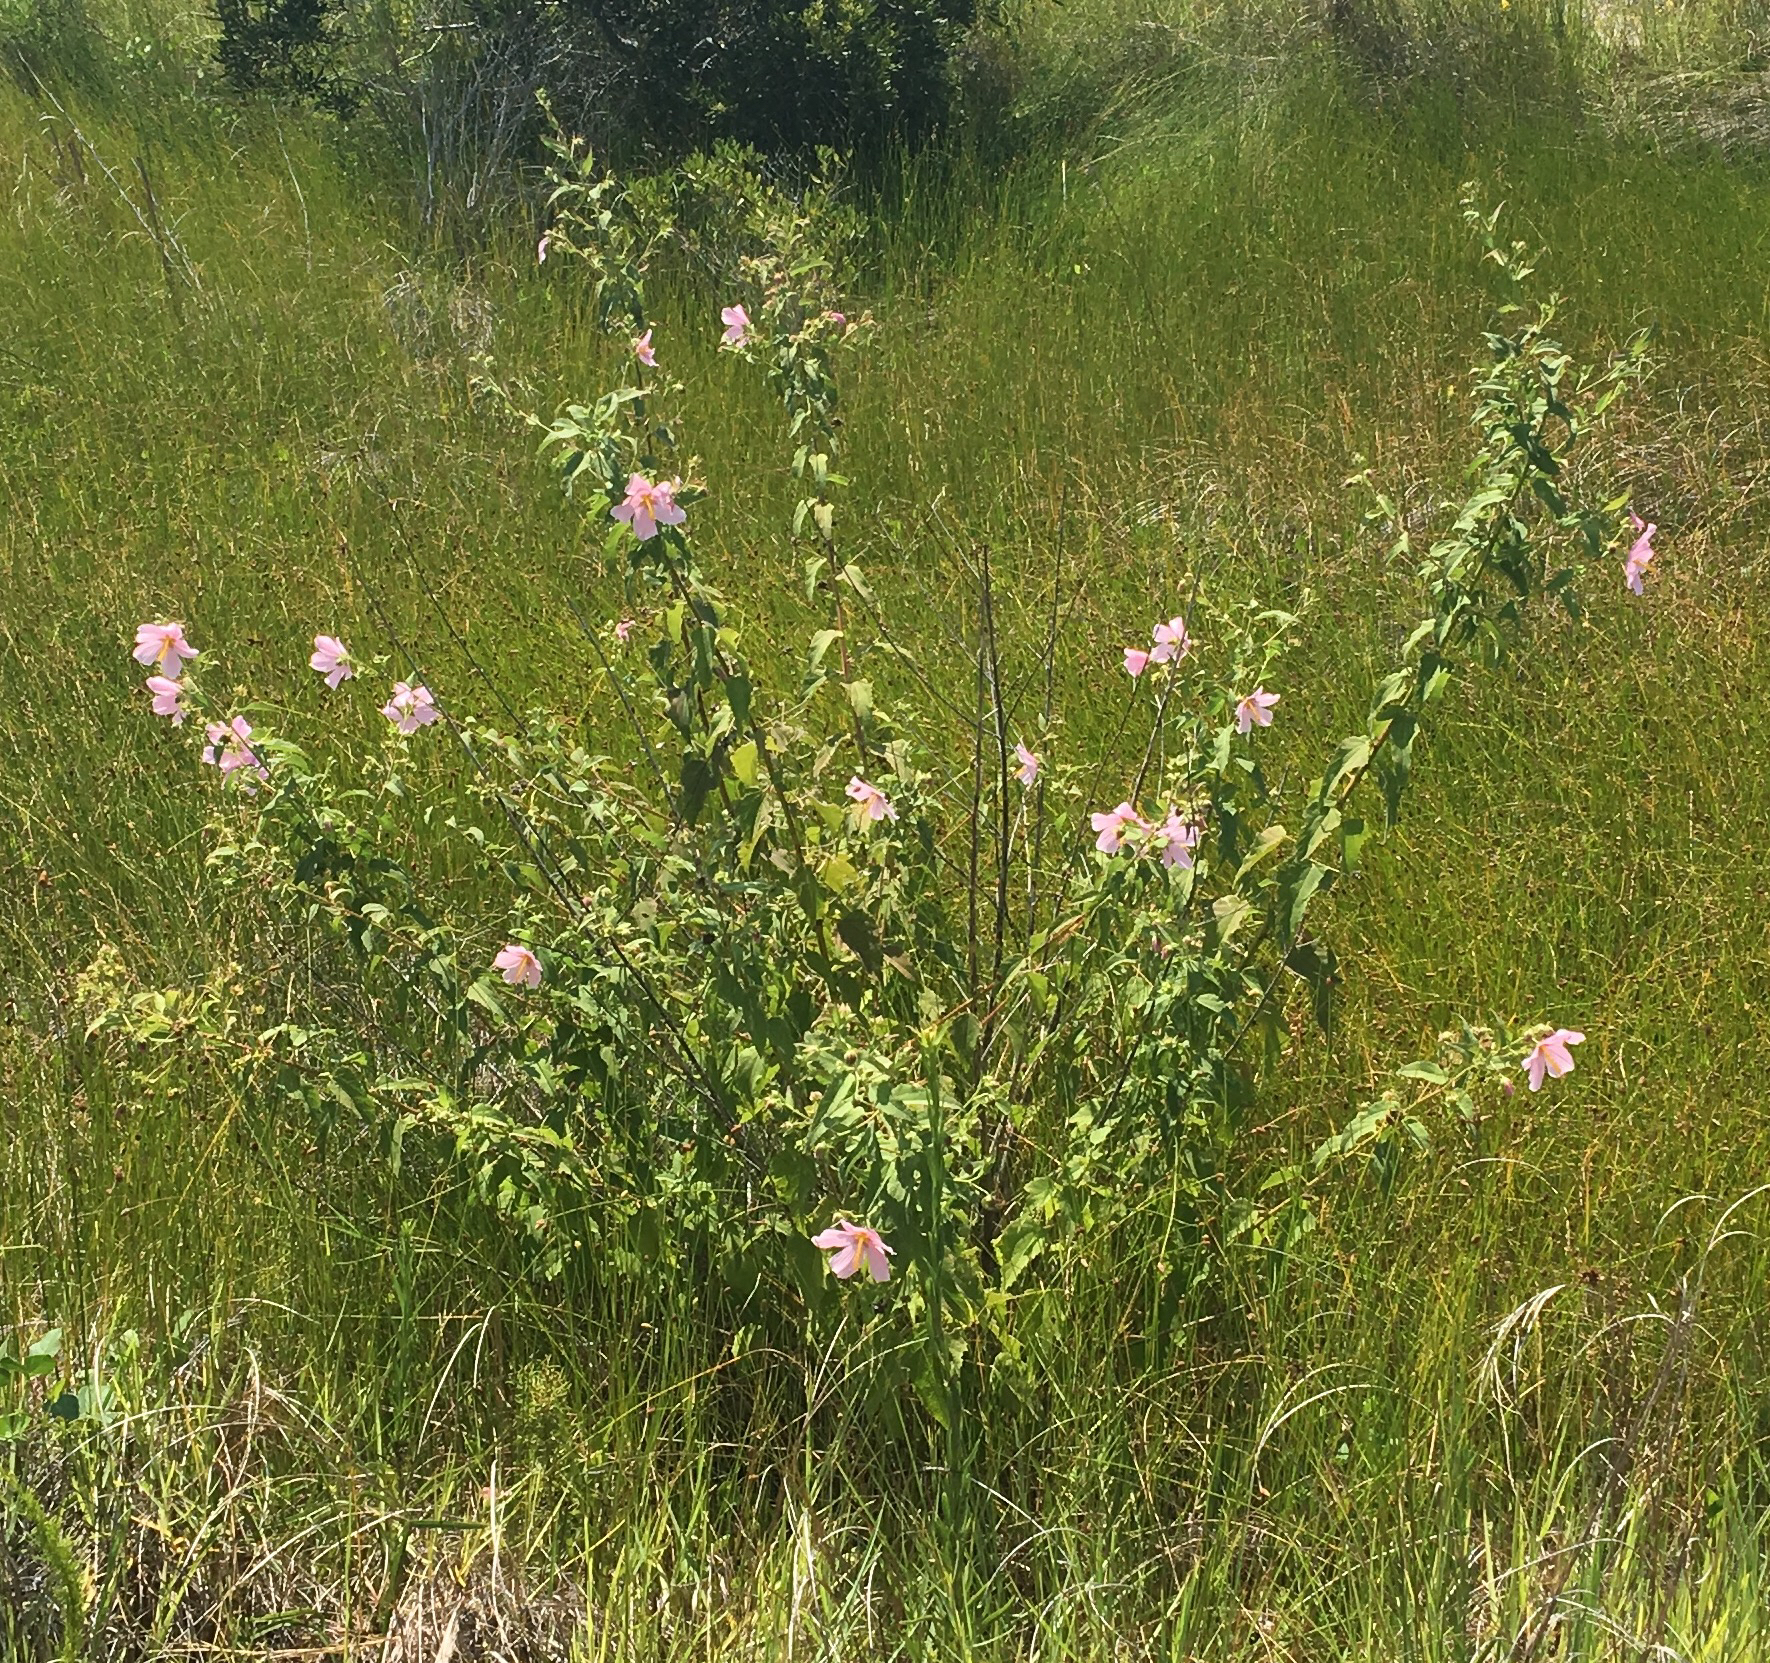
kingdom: Plantae
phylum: Tracheophyta
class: Magnoliopsida
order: Malvales
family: Malvaceae
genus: Kosteletzkya
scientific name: Kosteletzkya pentacarpos
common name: Virginia saltmarsh mallow
